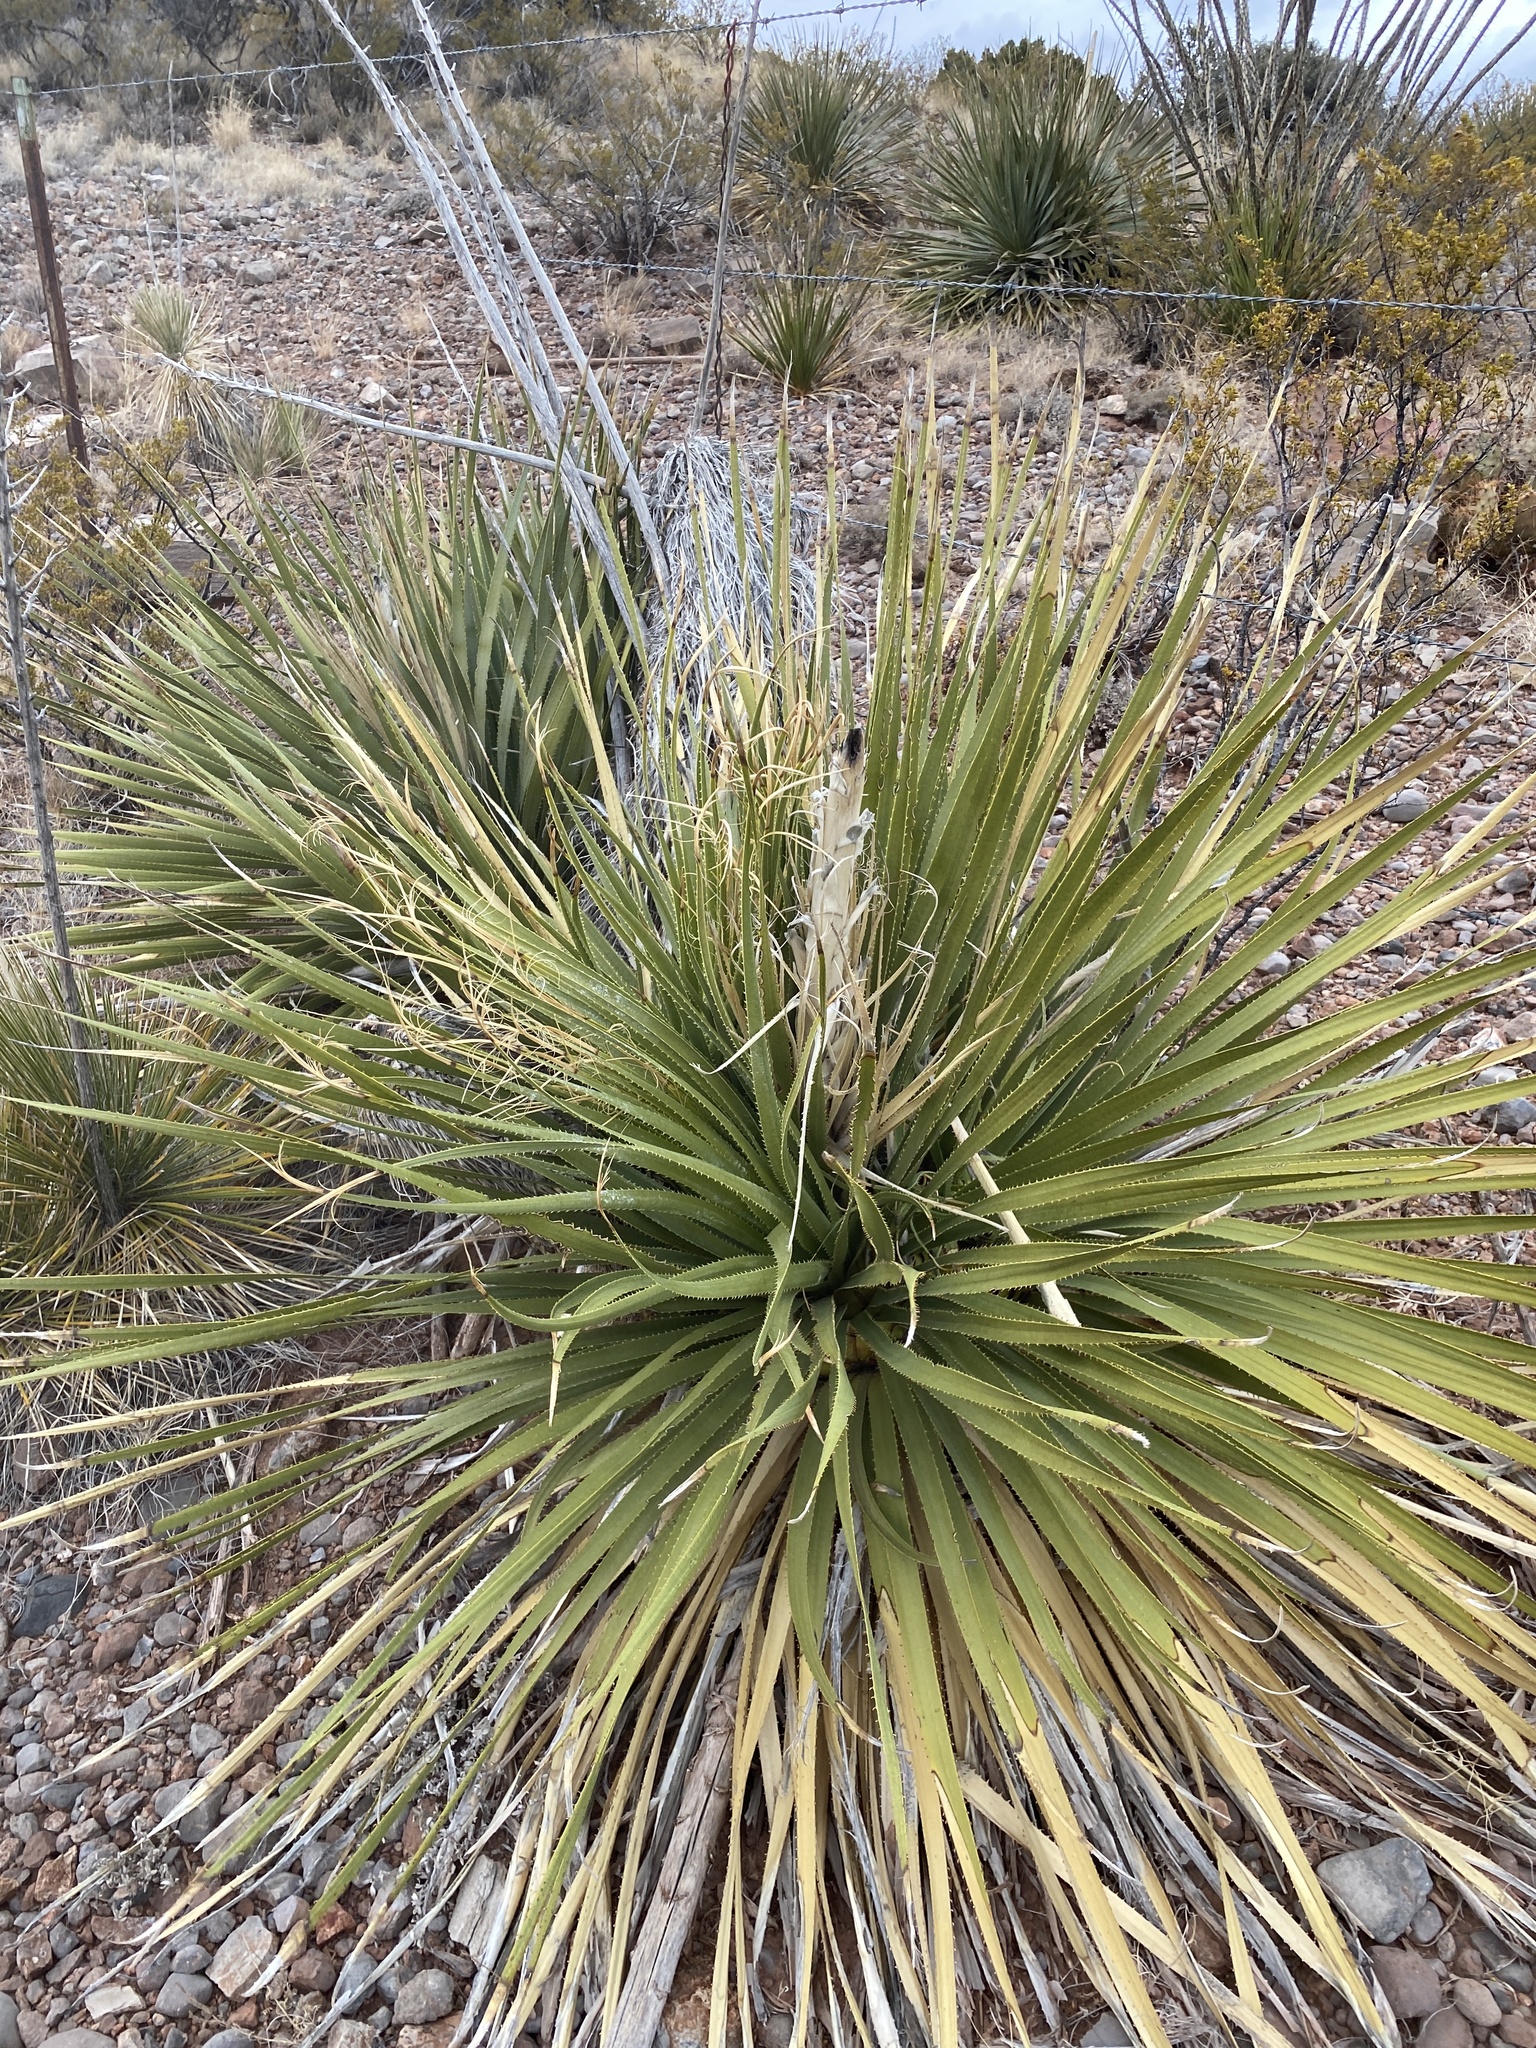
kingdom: Plantae
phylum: Tracheophyta
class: Liliopsida
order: Asparagales
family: Asparagaceae
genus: Dasylirion
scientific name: Dasylirion wheeleri
